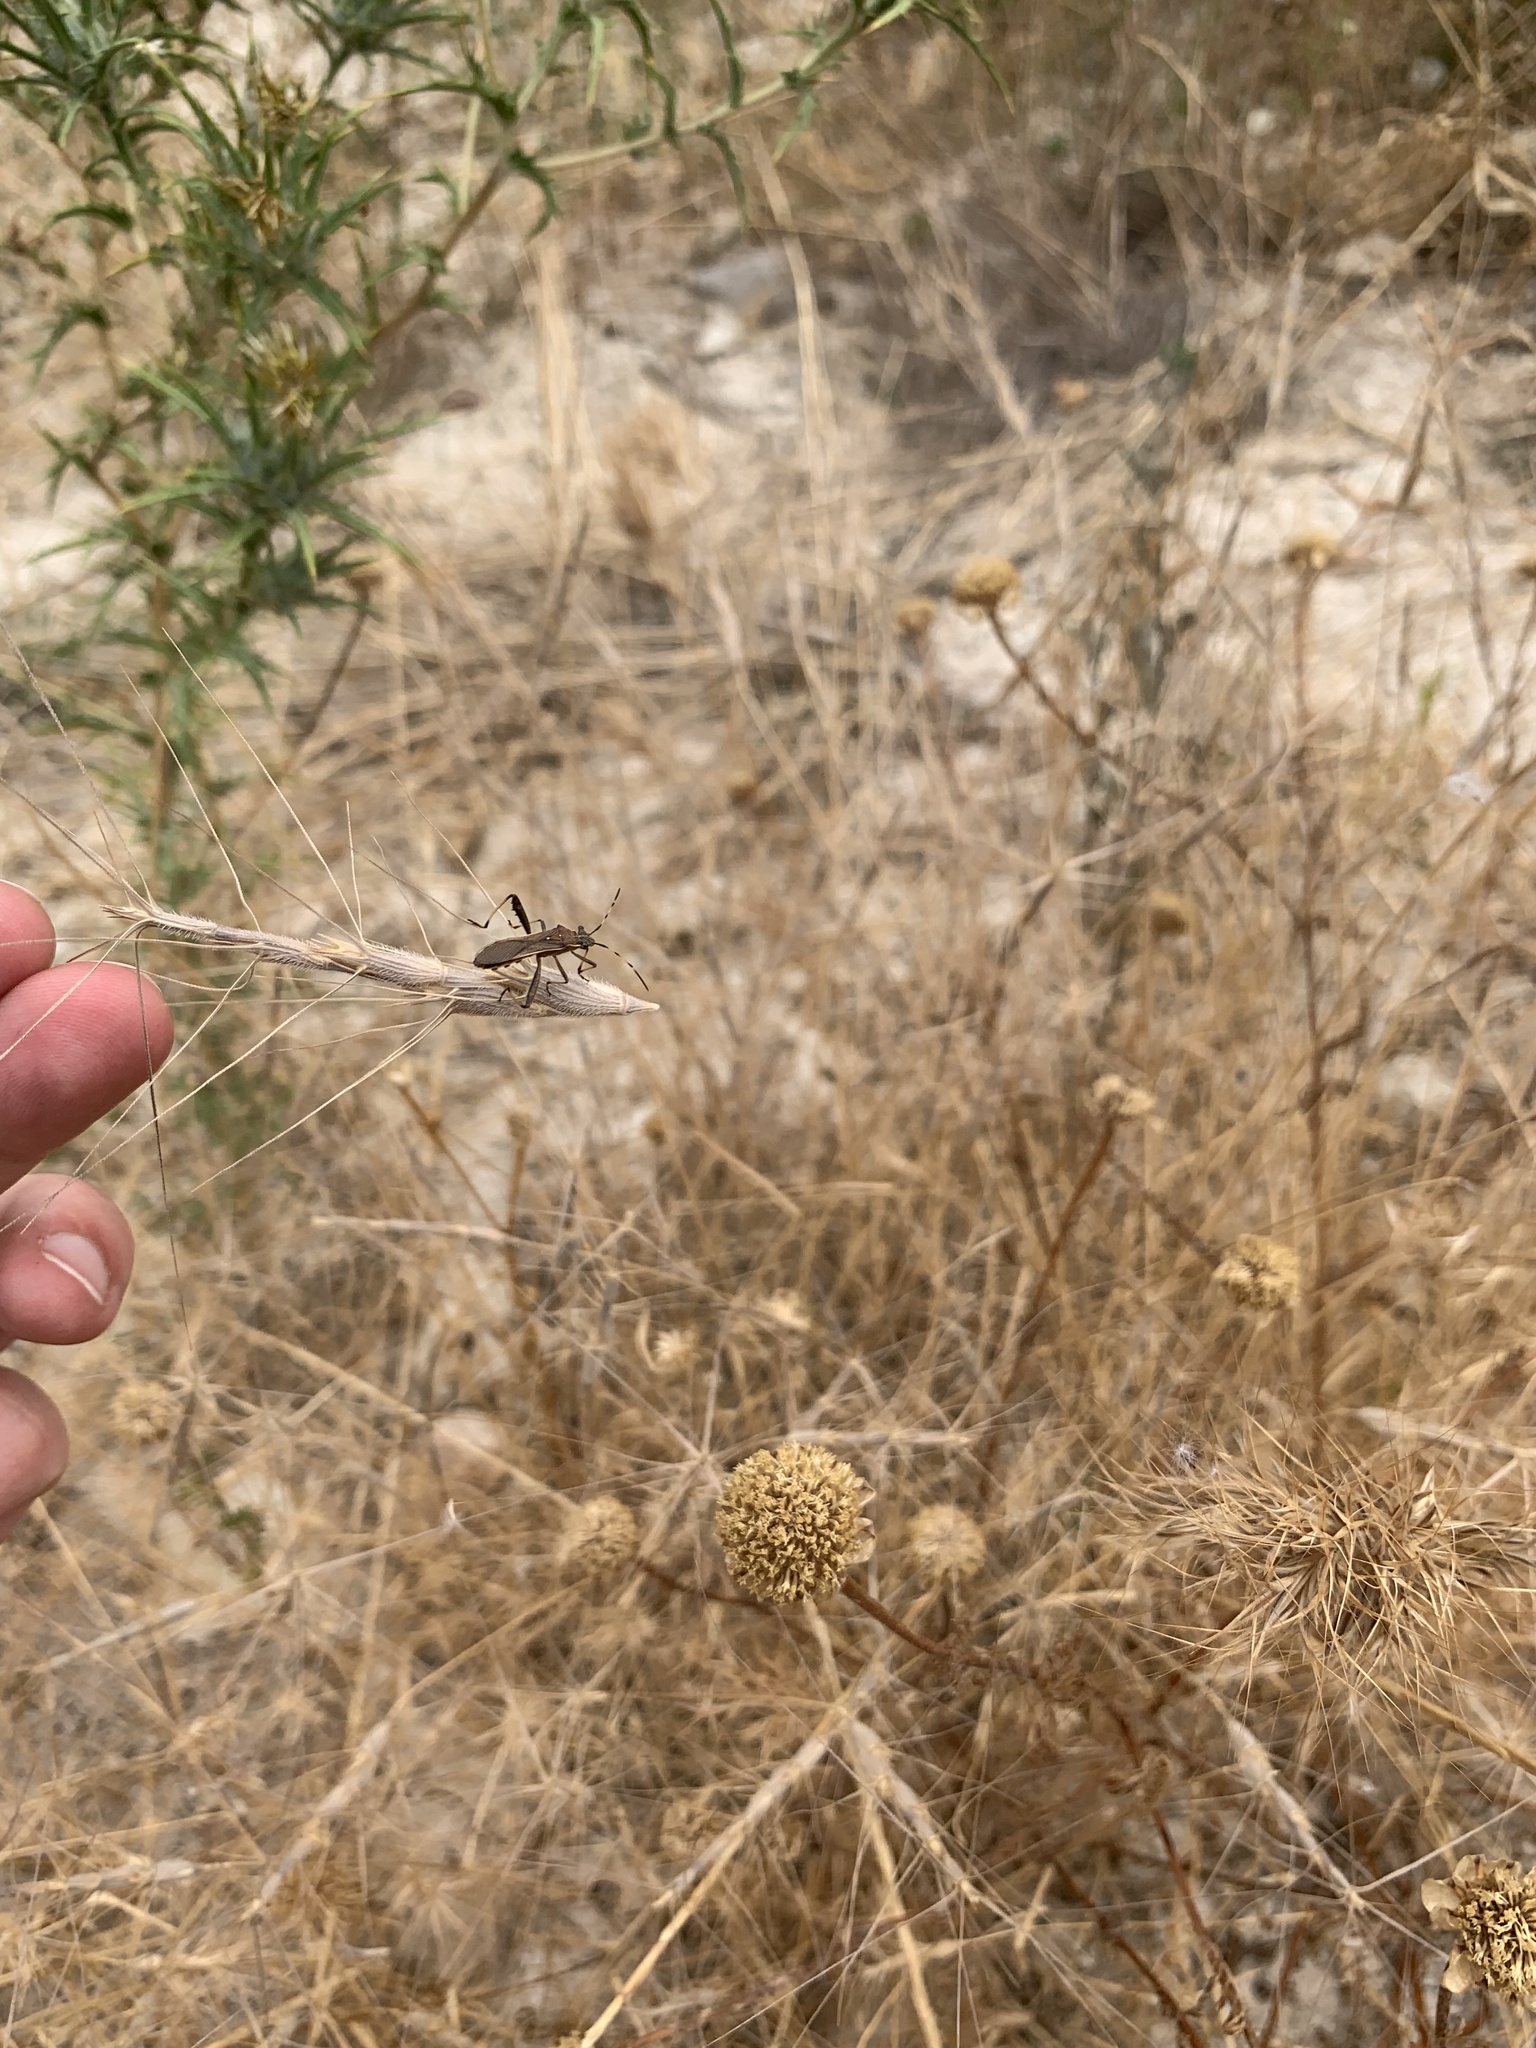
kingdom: Animalia
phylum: Arthropoda
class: Insecta
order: Hemiptera
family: Alydidae
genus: Camptopus
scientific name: Camptopus lateralis
